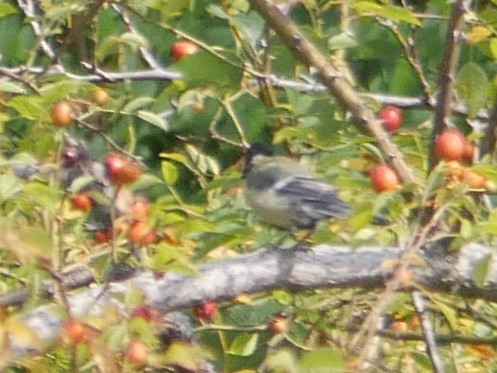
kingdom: Animalia
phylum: Chordata
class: Aves
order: Passeriformes
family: Paridae
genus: Parus
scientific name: Parus major
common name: Great tit
